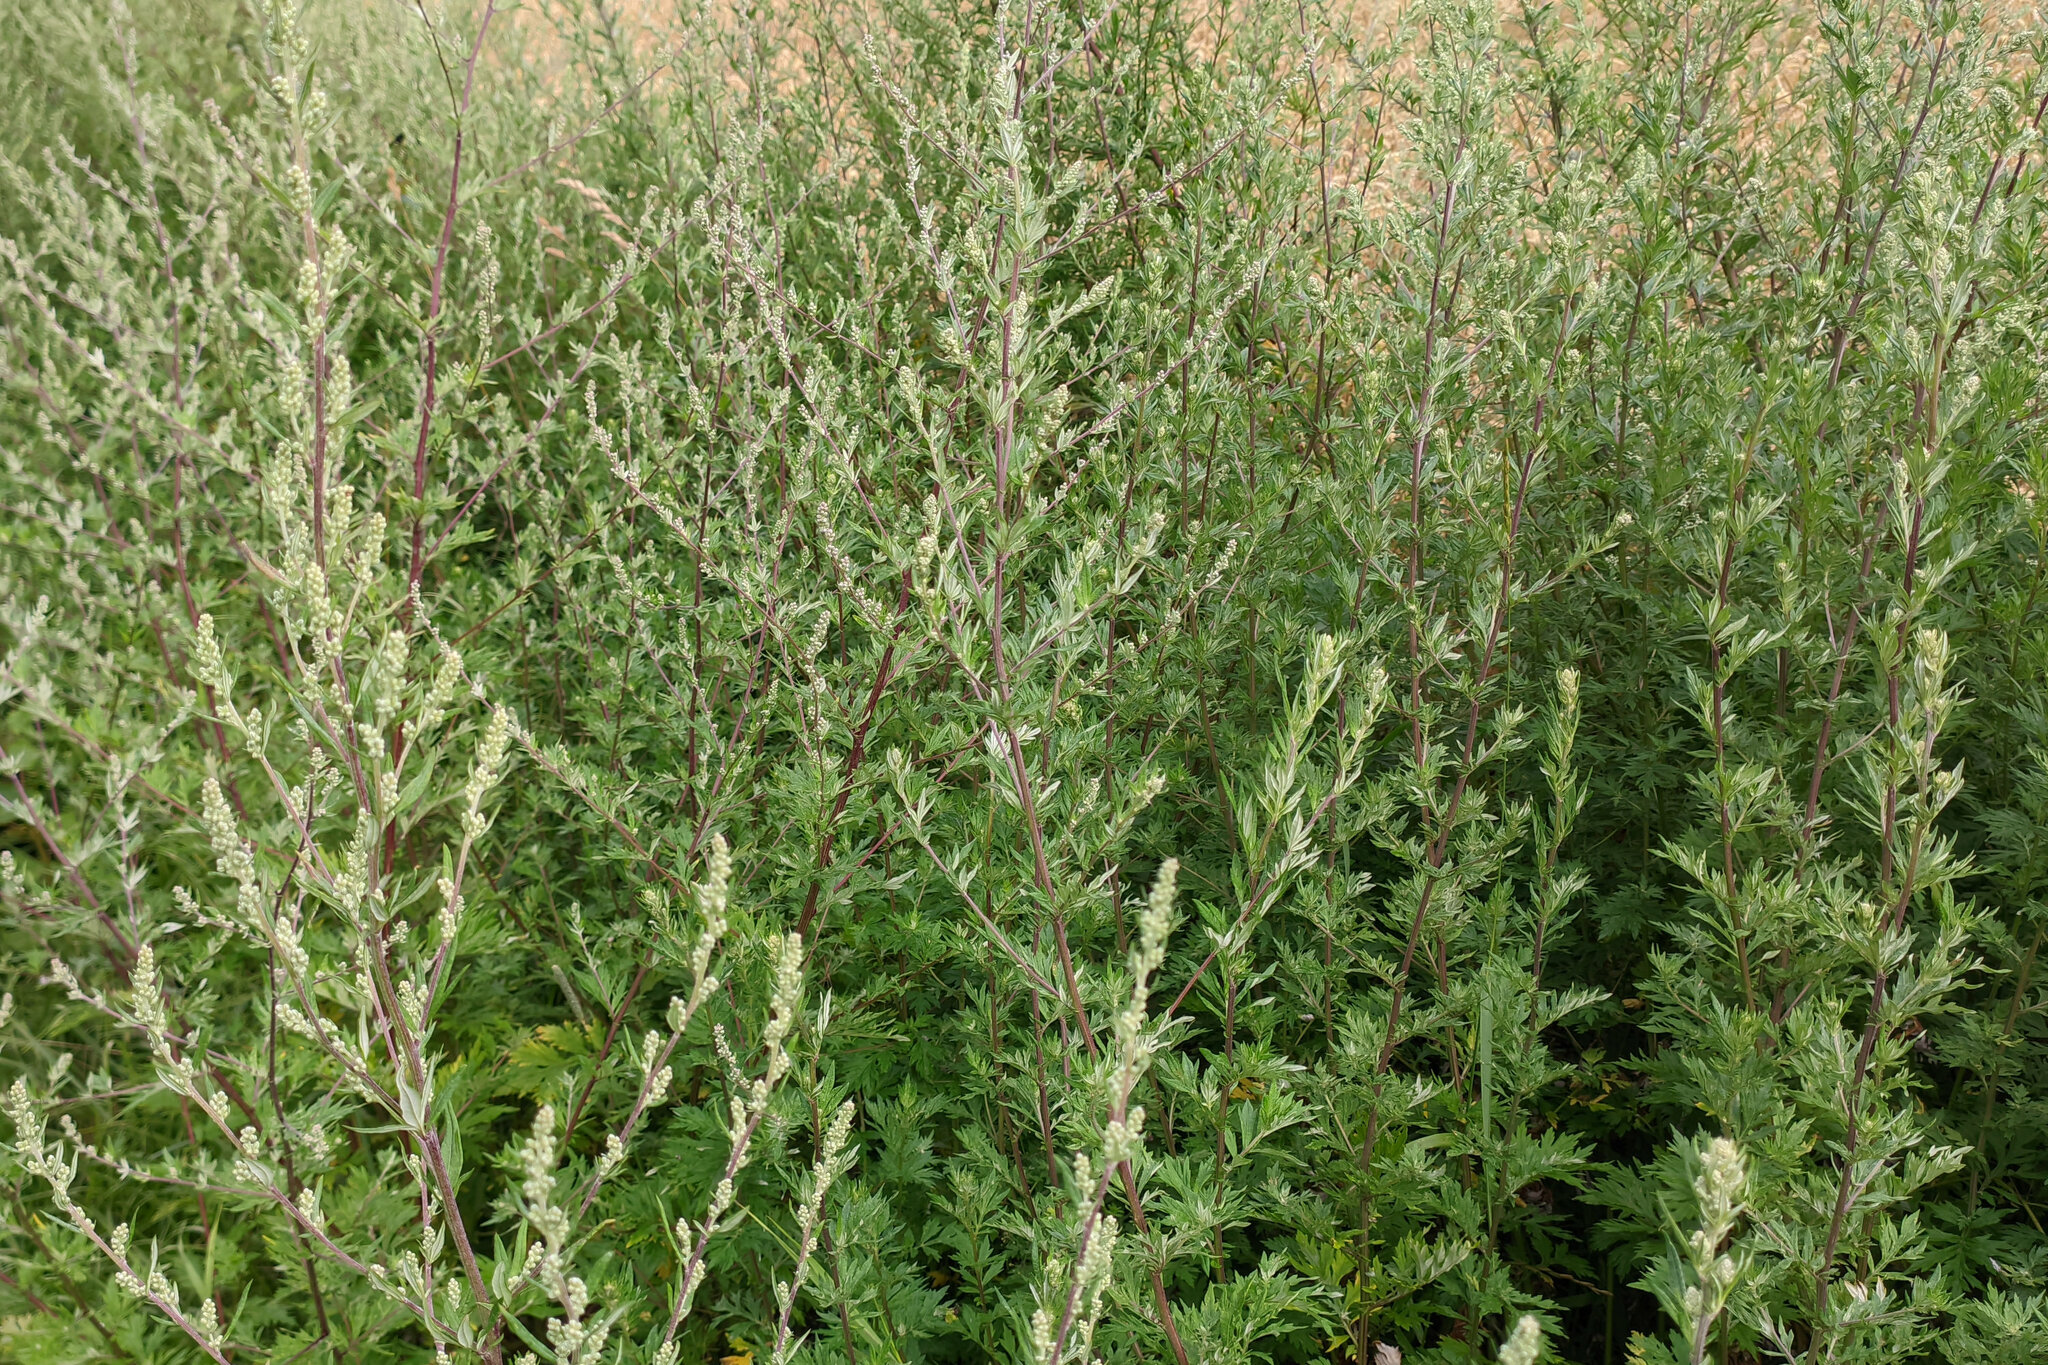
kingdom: Plantae
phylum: Tracheophyta
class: Magnoliopsida
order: Asterales
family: Asteraceae
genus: Artemisia
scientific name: Artemisia vulgaris
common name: Mugwort
